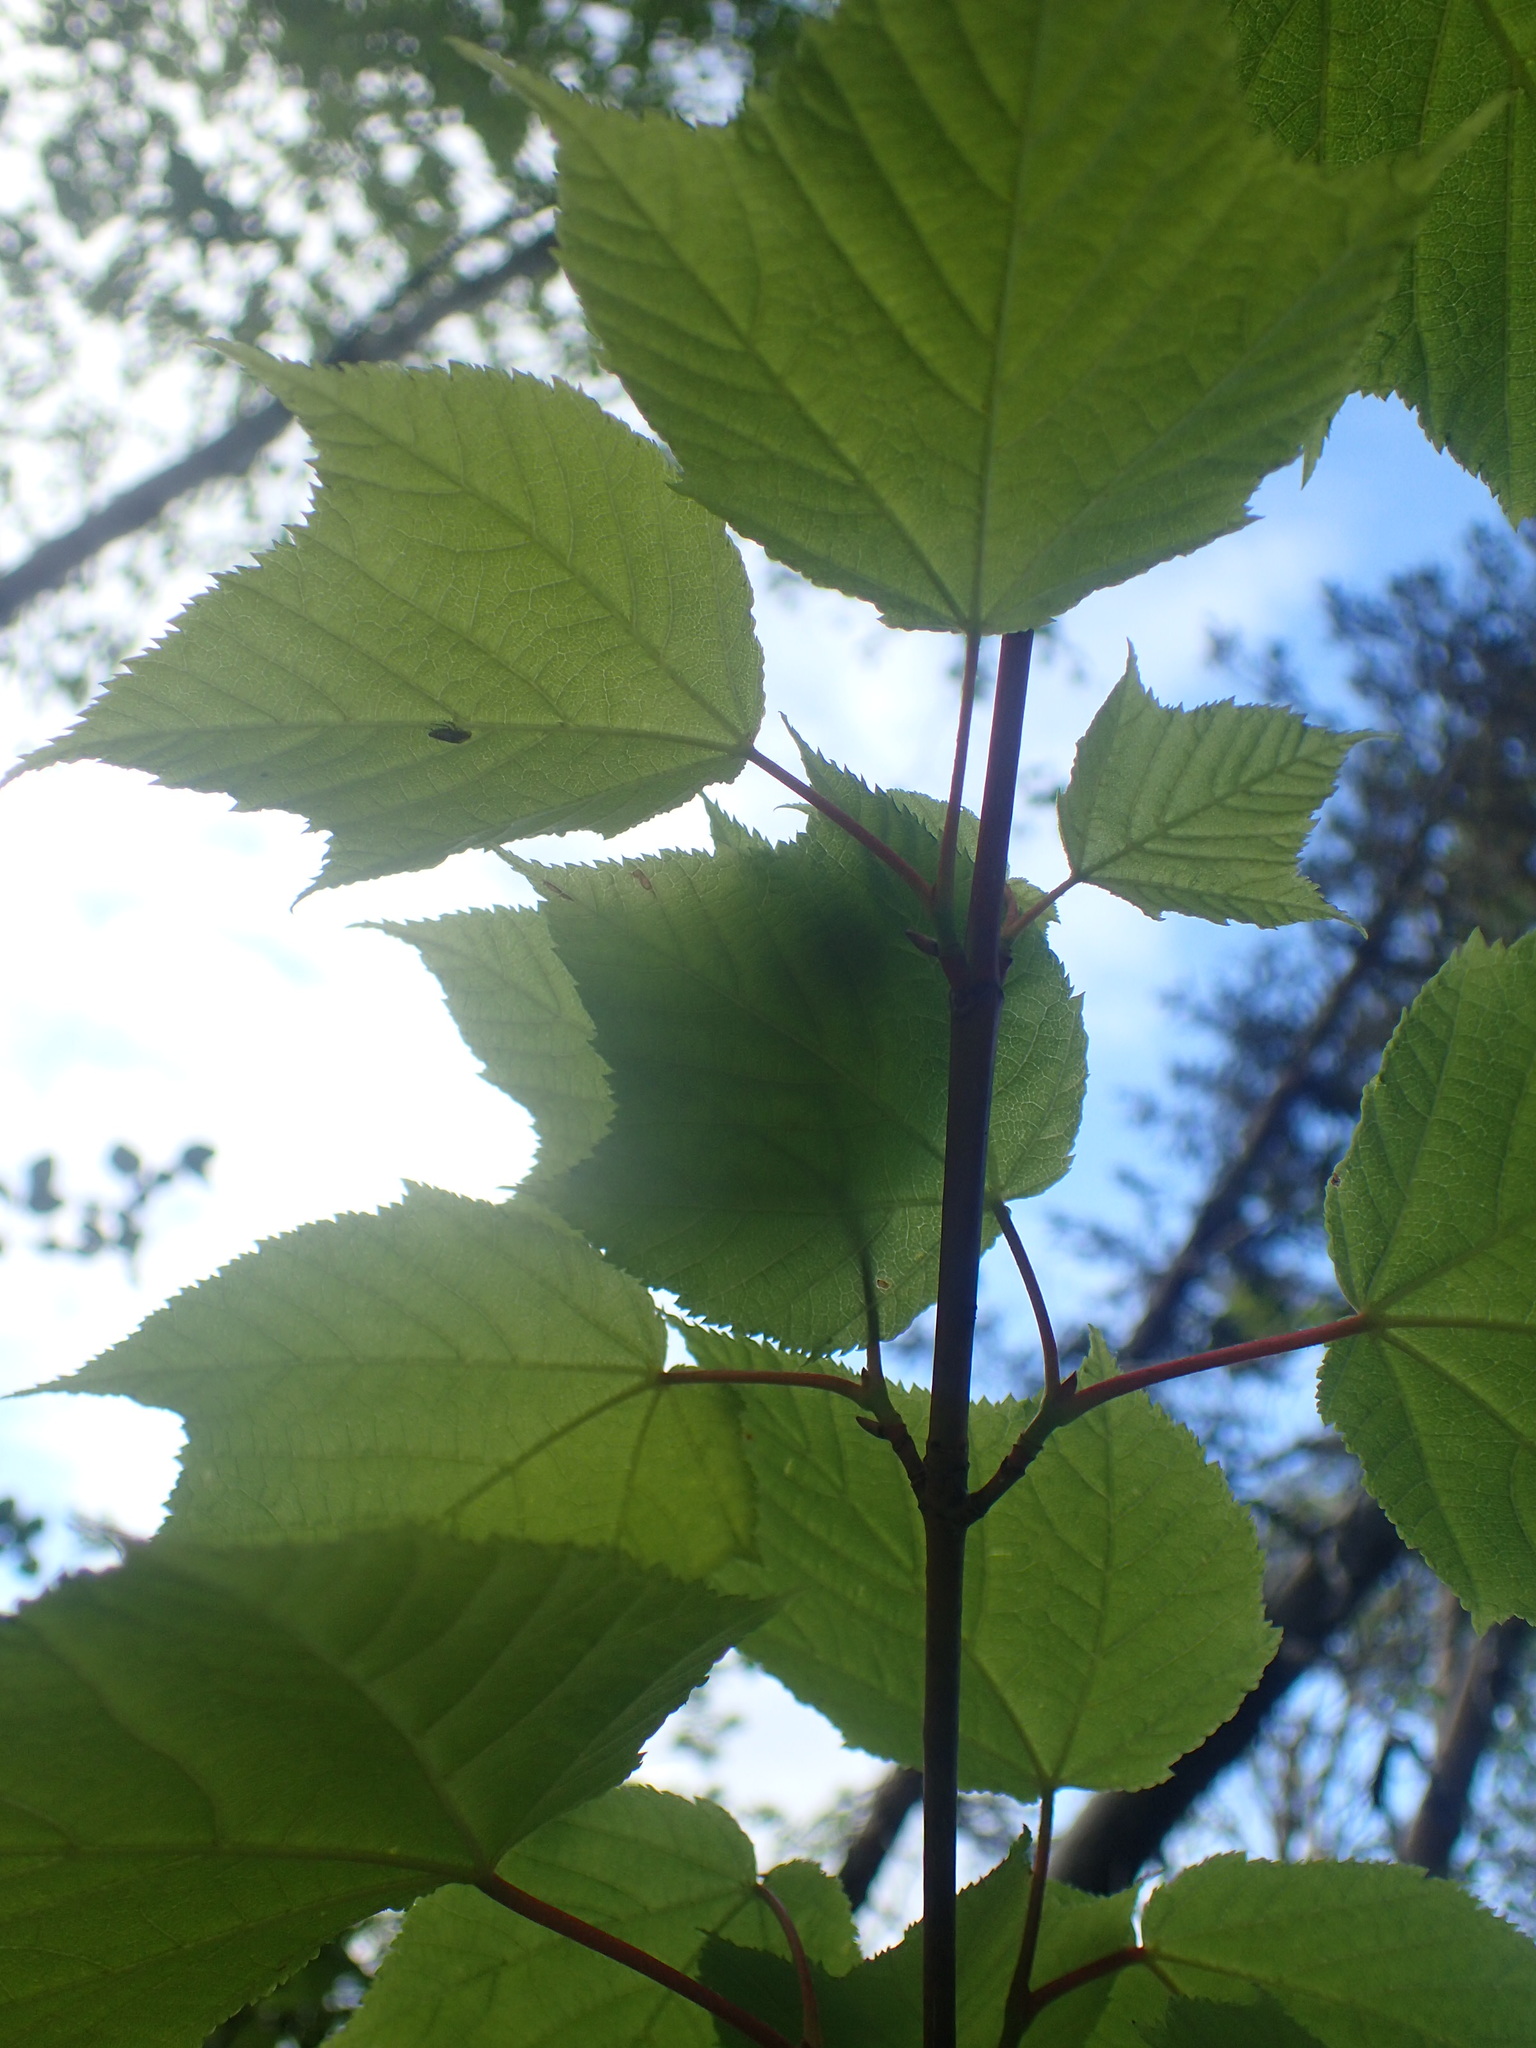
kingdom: Plantae
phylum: Tracheophyta
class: Magnoliopsida
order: Sapindales
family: Sapindaceae
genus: Acer
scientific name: Acer pensylvanicum
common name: Moosewood
